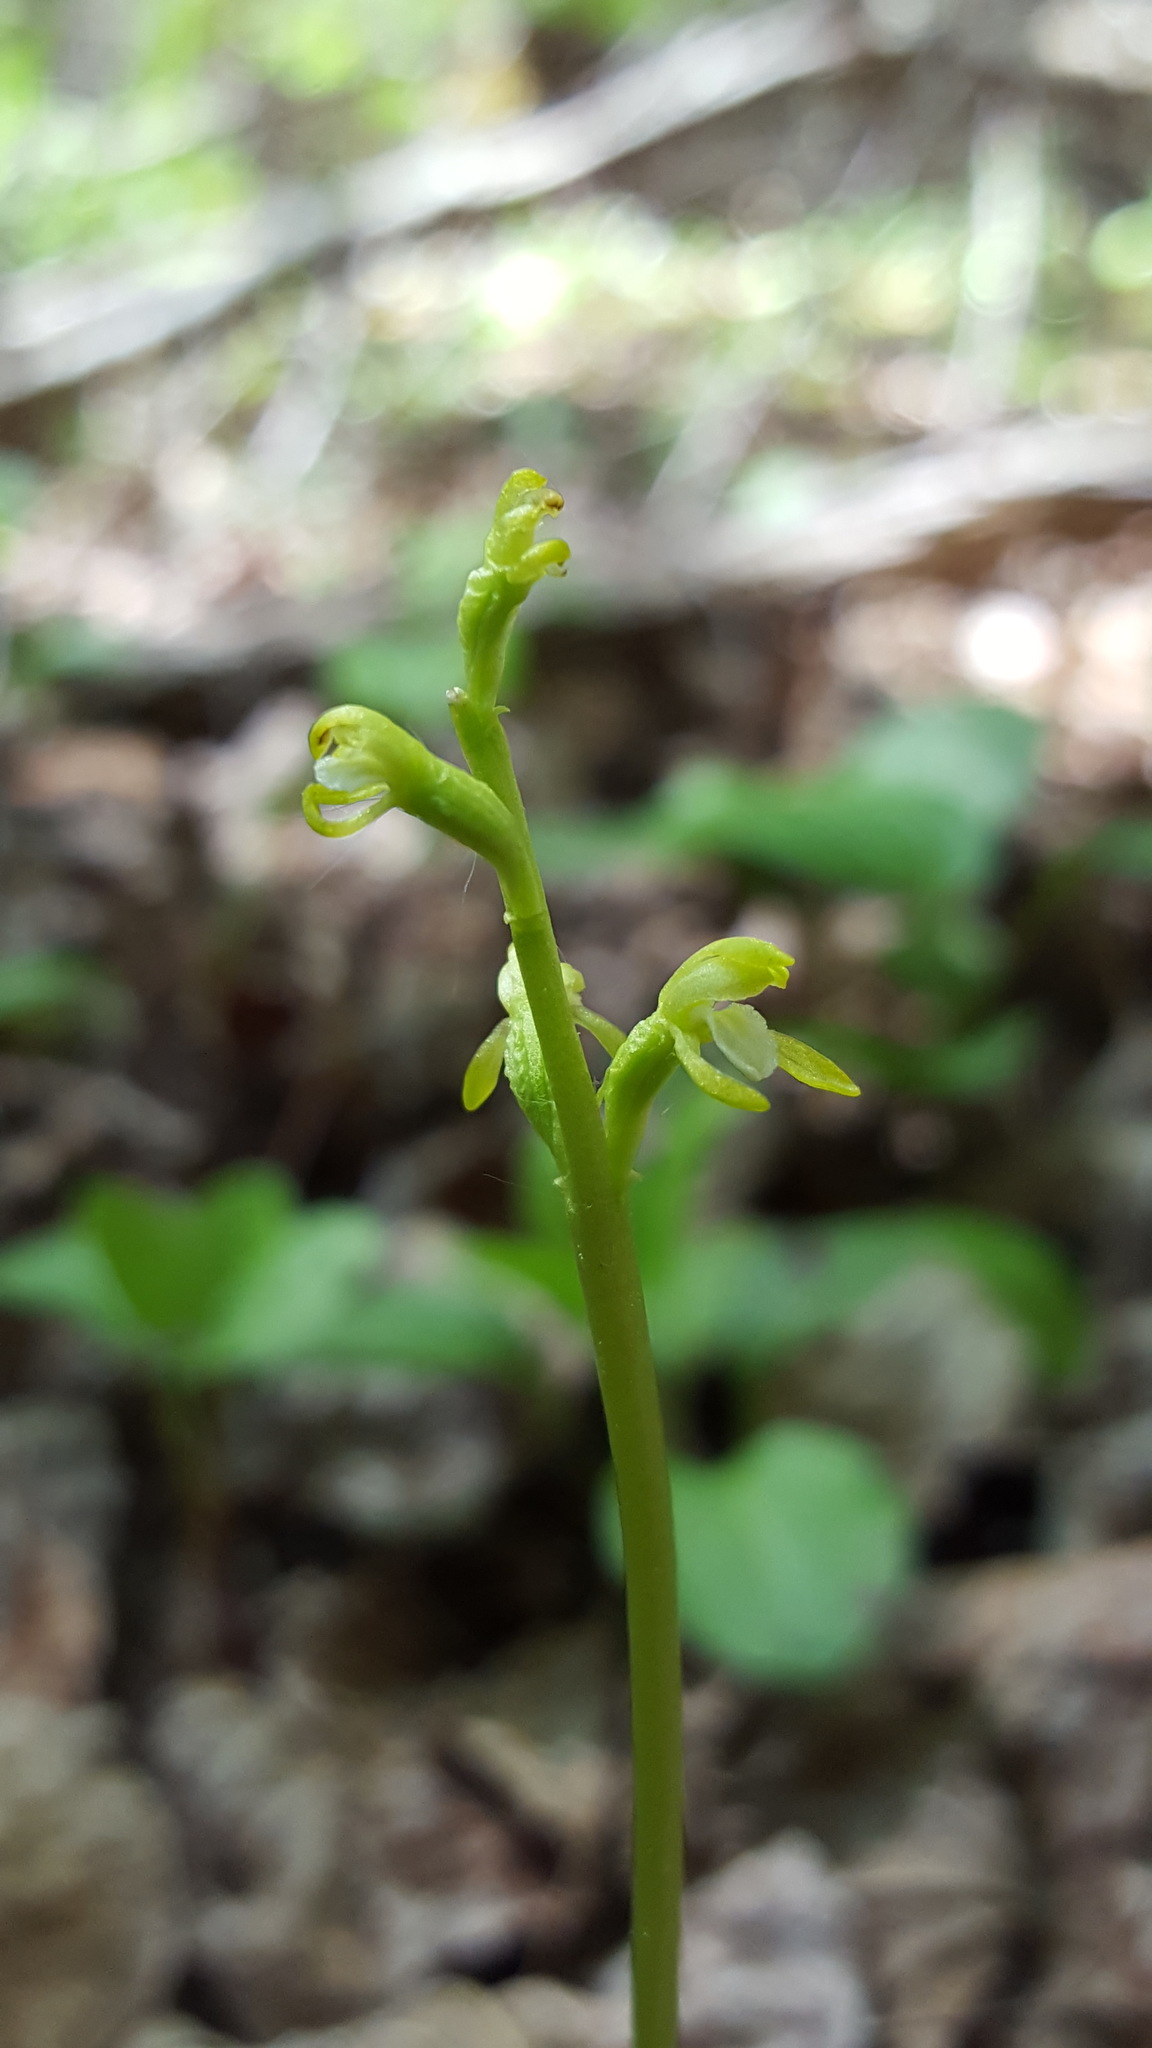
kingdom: Plantae
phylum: Tracheophyta
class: Liliopsida
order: Asparagales
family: Orchidaceae
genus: Corallorhiza
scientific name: Corallorhiza trifida
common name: Yellow coralroot
